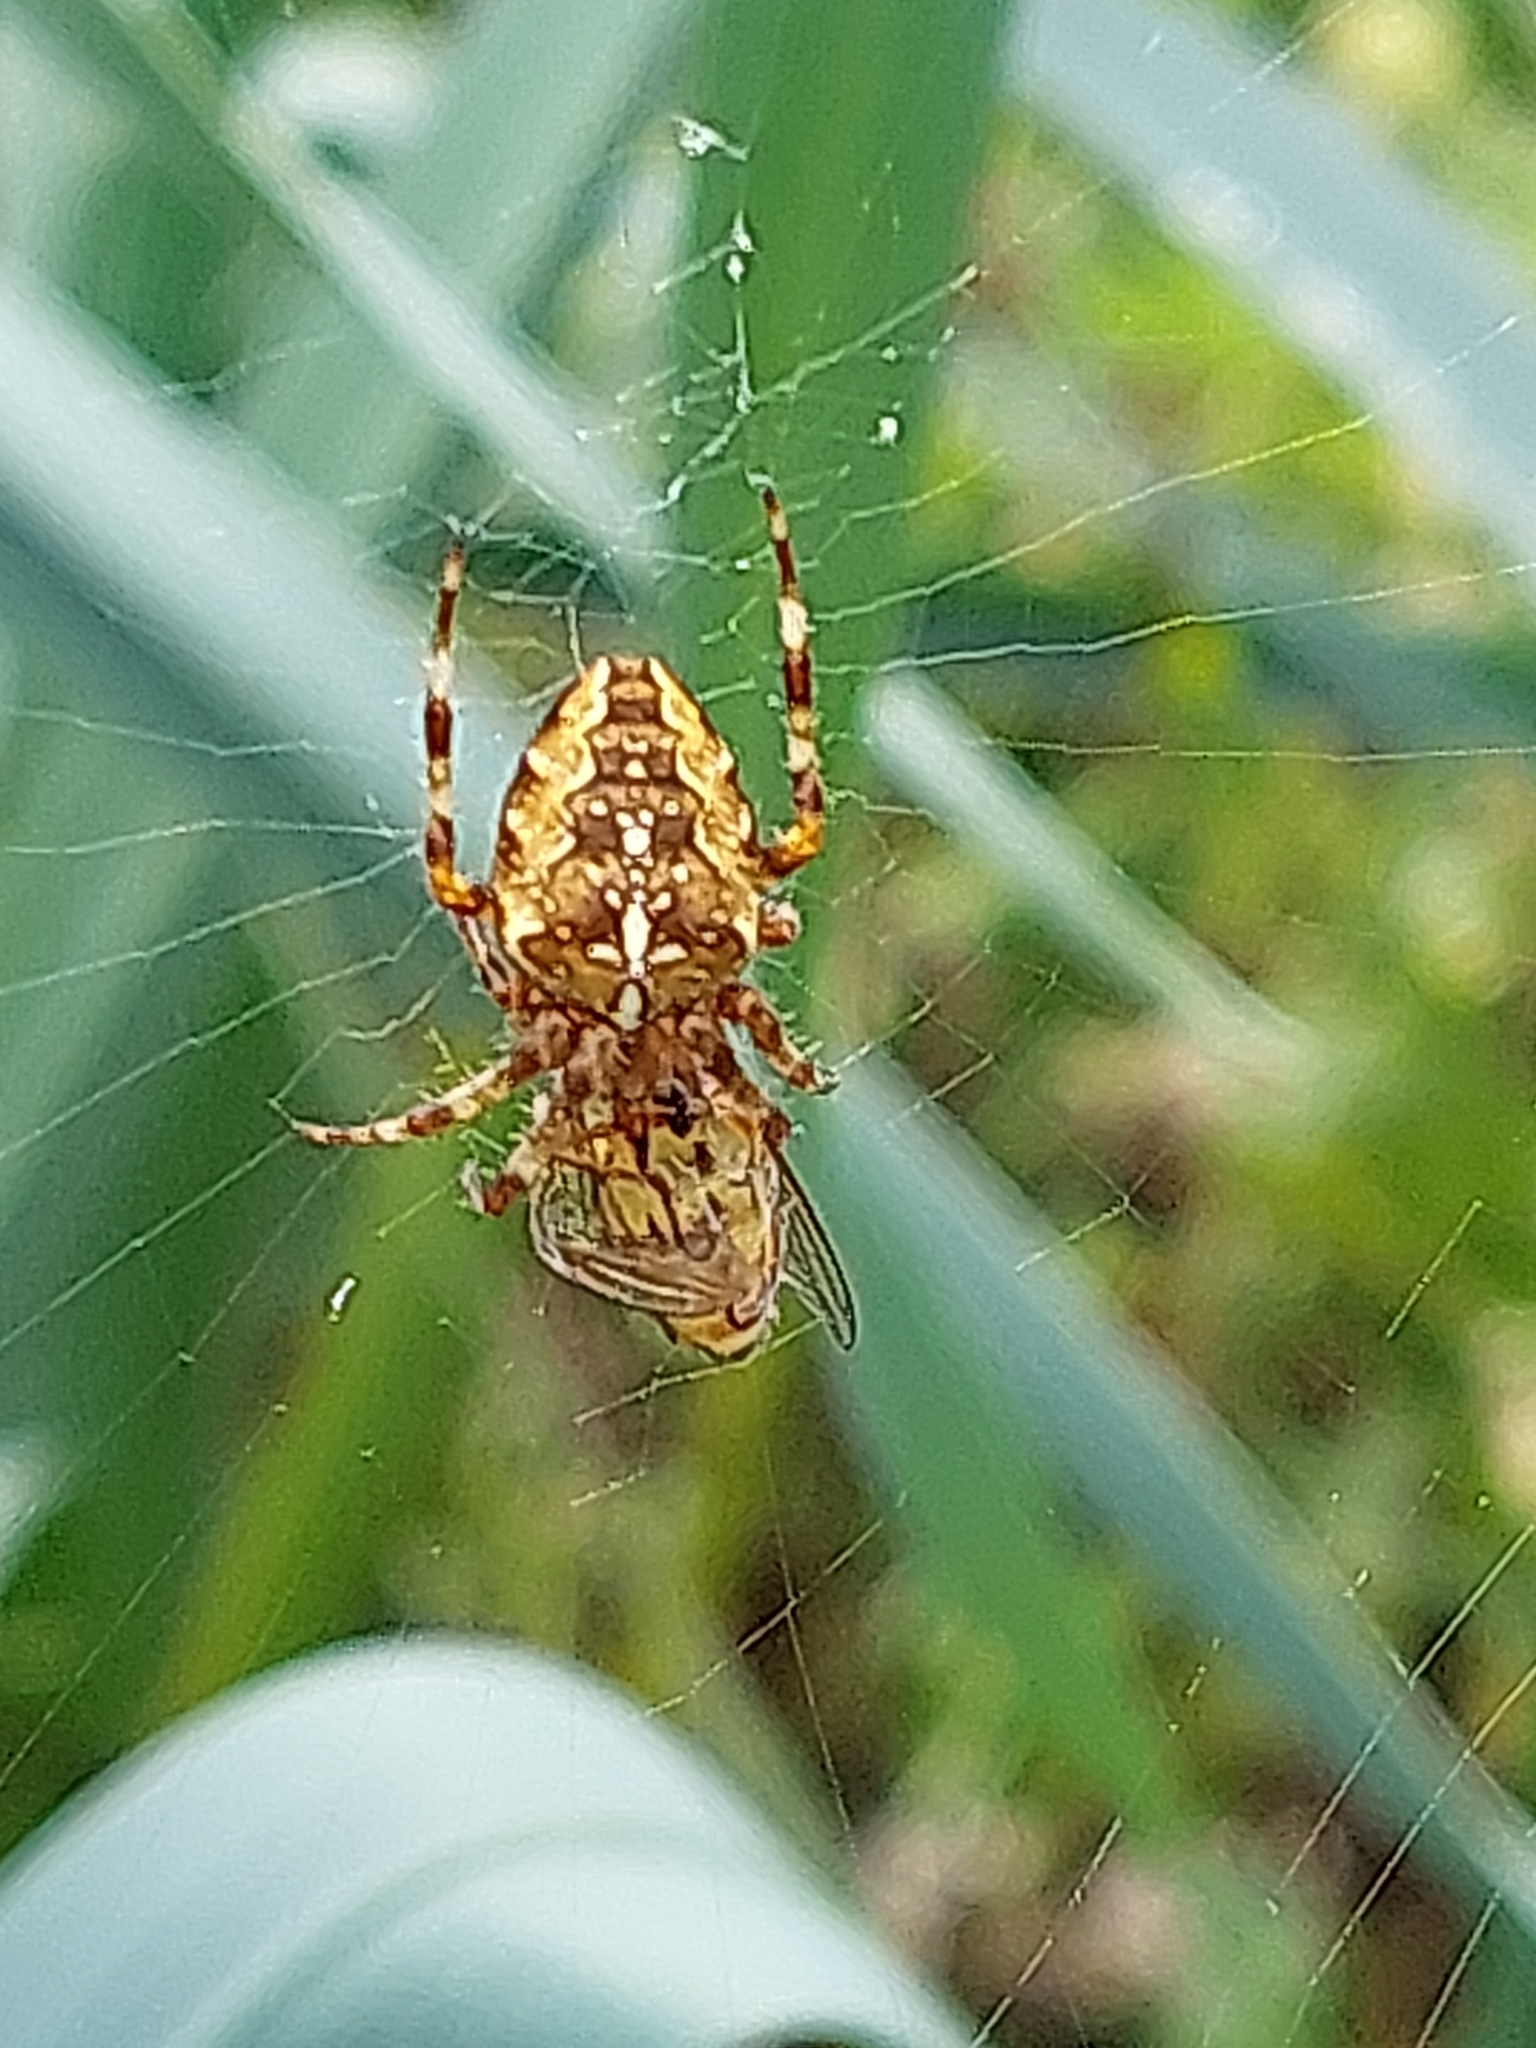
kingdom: Animalia
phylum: Arthropoda
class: Arachnida
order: Araneae
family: Araneidae
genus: Araneus
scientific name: Araneus diadematus
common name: Cross orbweaver
